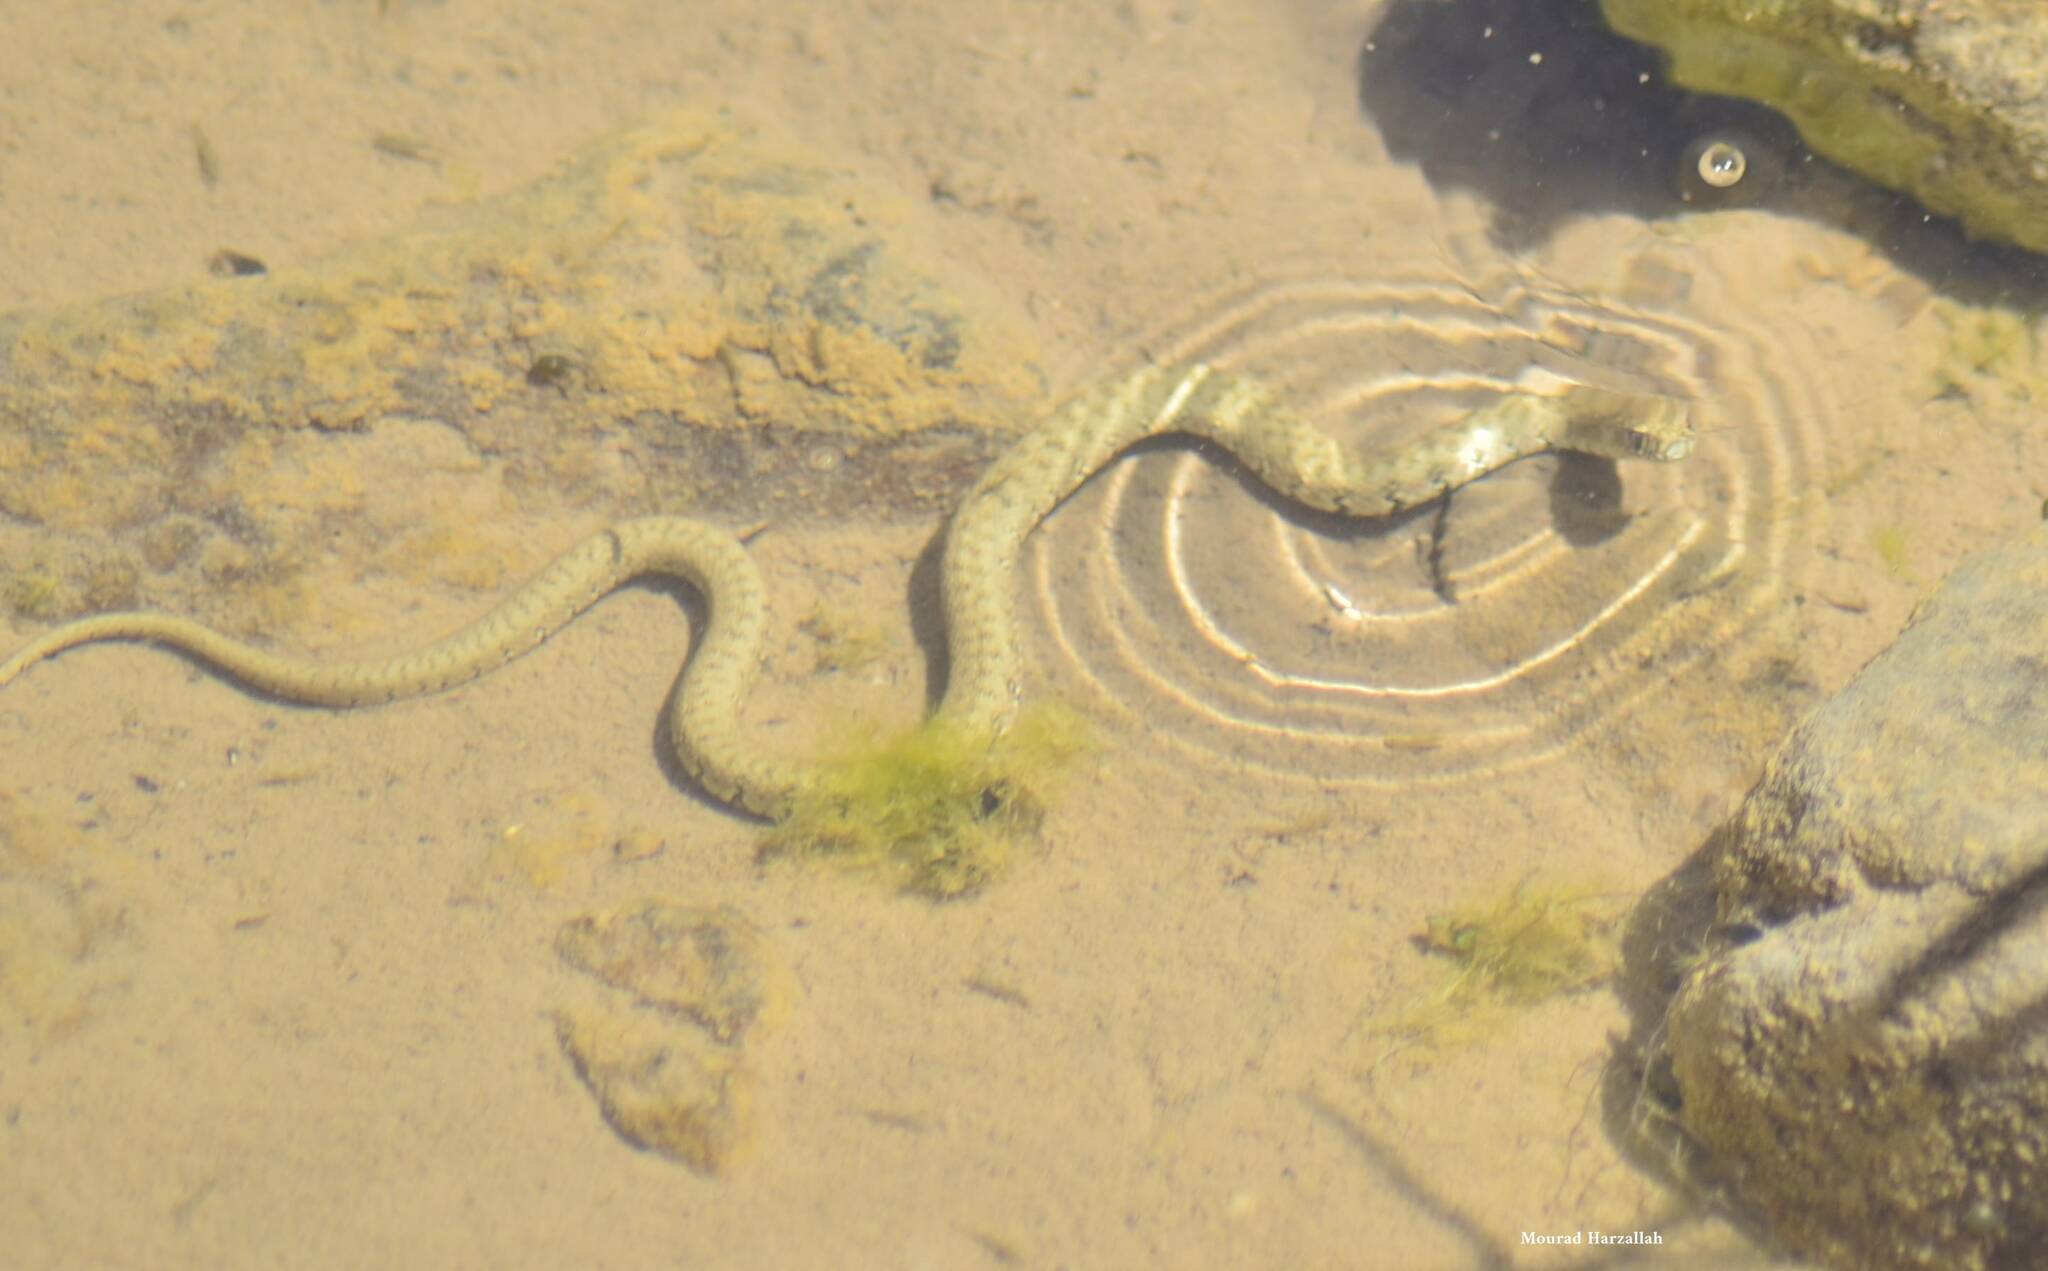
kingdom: Animalia
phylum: Chordata
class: Squamata
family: Colubridae
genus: Natrix
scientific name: Natrix maura
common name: Viperine water snake
